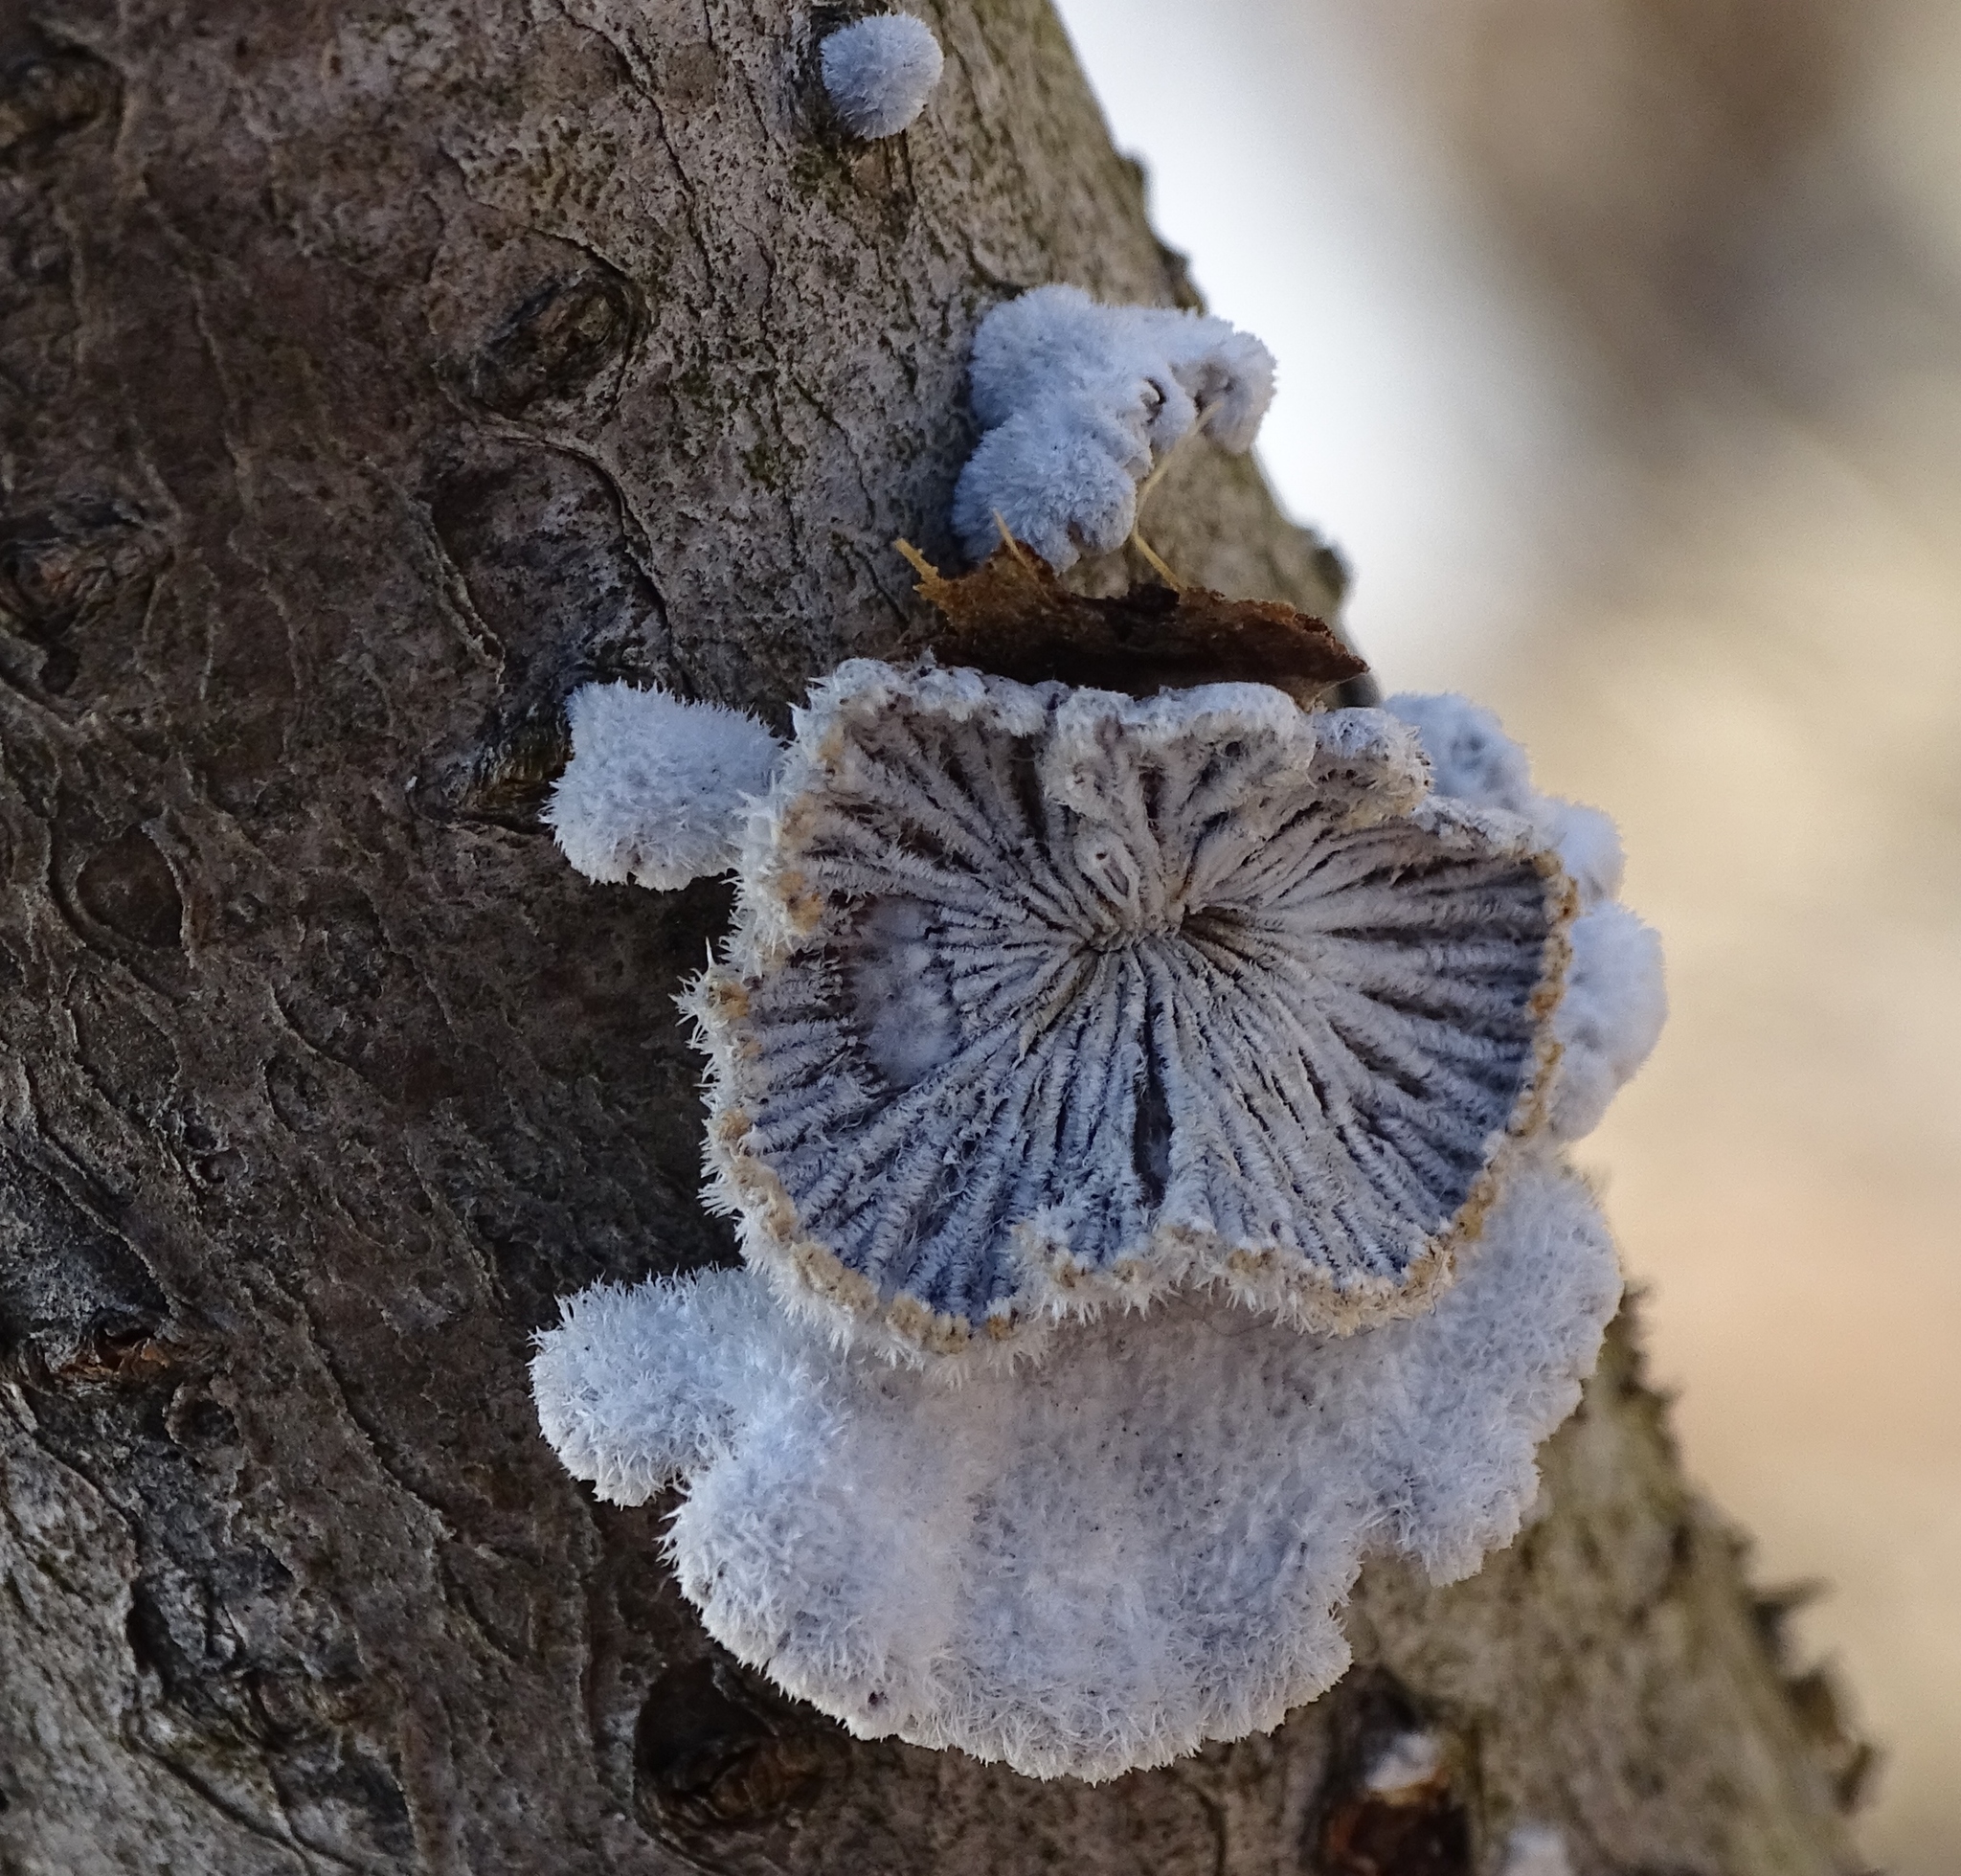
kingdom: Fungi
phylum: Basidiomycota
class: Agaricomycetes
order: Agaricales
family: Schizophyllaceae
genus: Schizophyllum
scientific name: Schizophyllum commune
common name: Common porecrust
